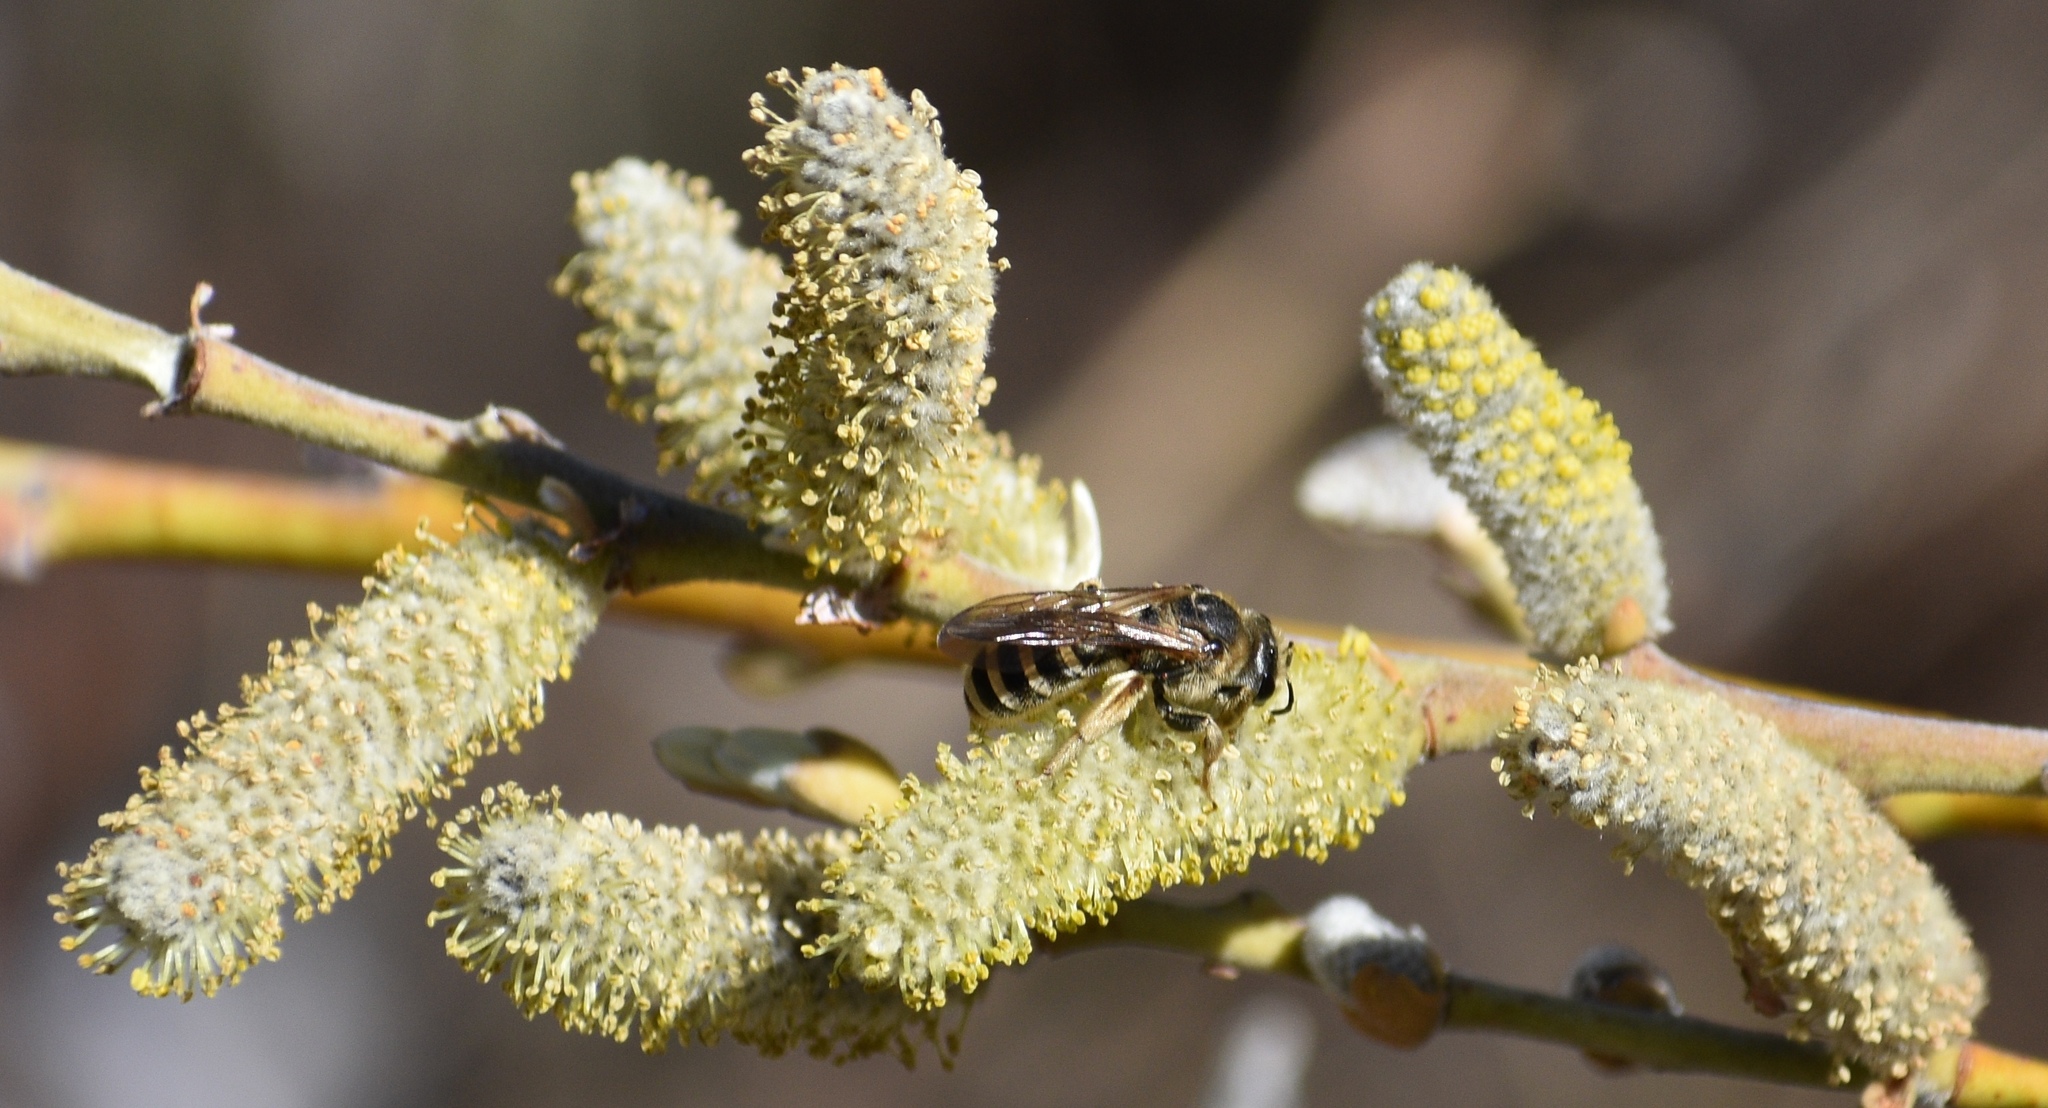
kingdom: Animalia
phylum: Arthropoda
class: Insecta
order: Hymenoptera
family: Halictidae
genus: Halictus
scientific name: Halictus farinosus
